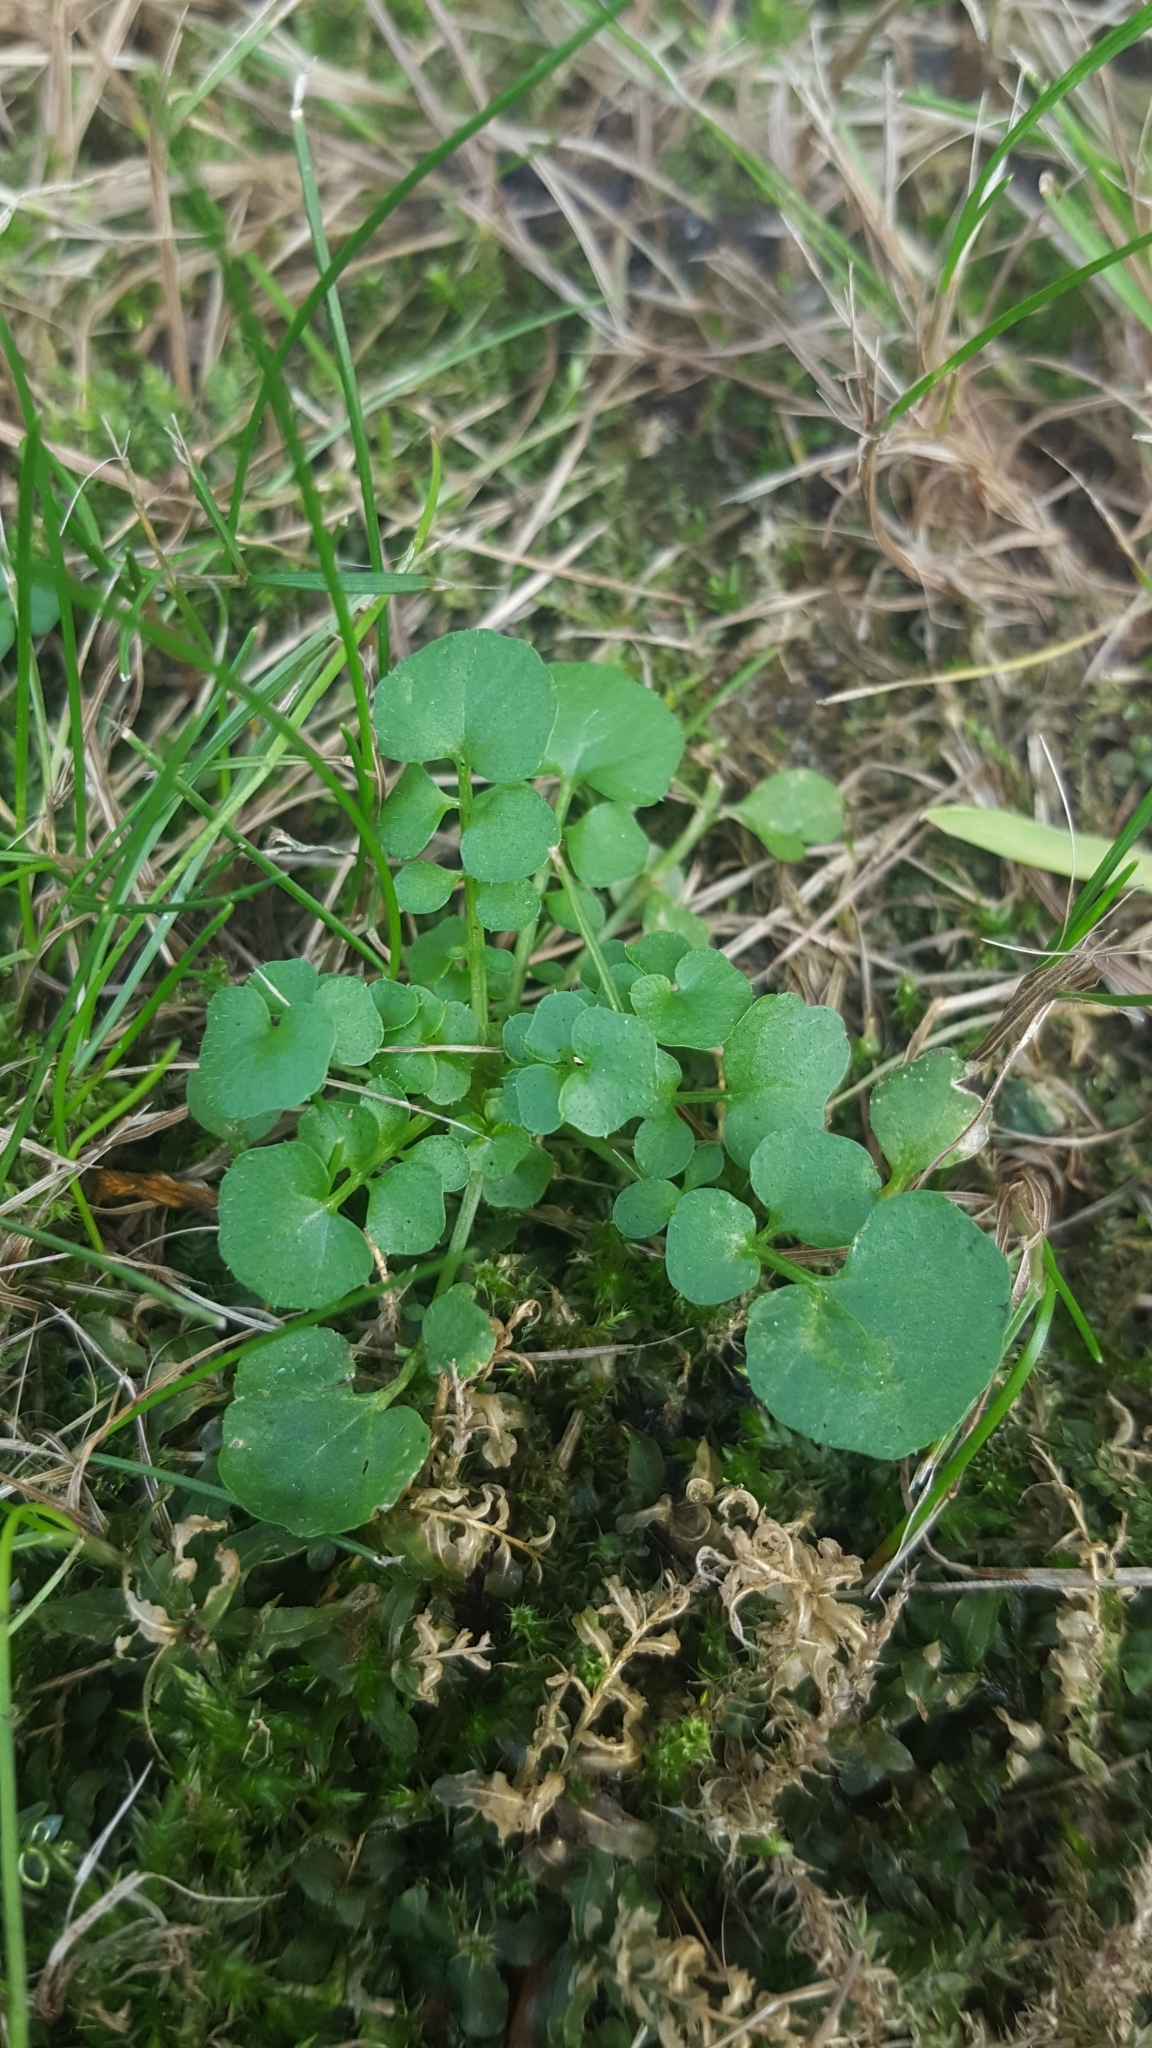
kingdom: Plantae
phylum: Tracheophyta
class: Magnoliopsida
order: Brassicales
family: Brassicaceae
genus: Cardamine
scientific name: Cardamine hirsuta
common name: Hairy bittercress
